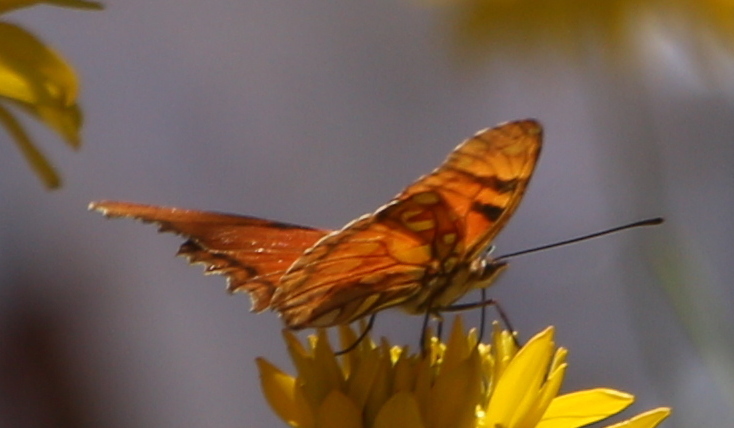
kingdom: Animalia
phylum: Arthropoda
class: Insecta
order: Lepidoptera
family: Nymphalidae
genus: Dione
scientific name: Dione juno
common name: Juno silverspot
